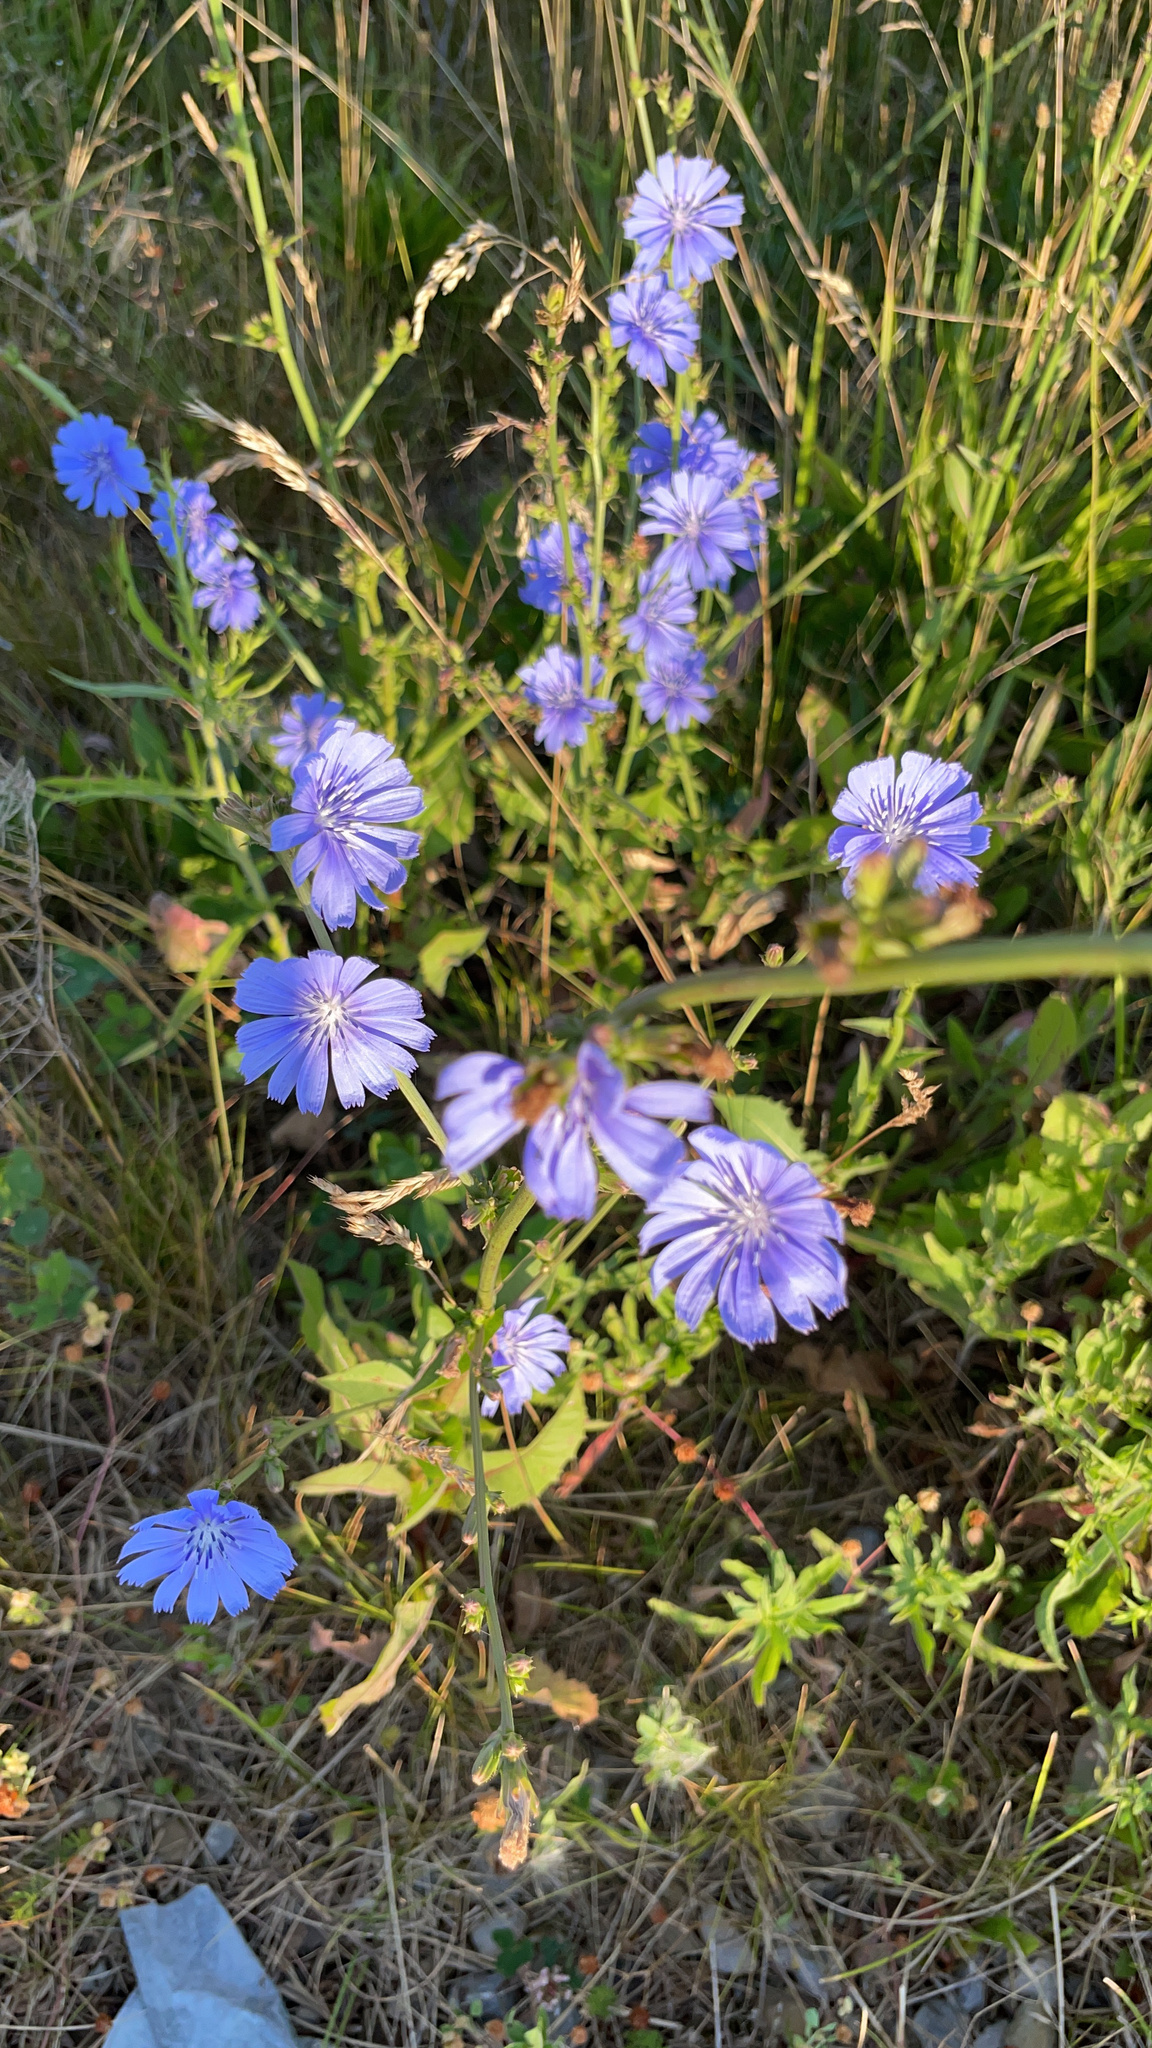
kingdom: Plantae
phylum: Tracheophyta
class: Magnoliopsida
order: Asterales
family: Asteraceae
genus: Cichorium
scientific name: Cichorium intybus
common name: Chicory
